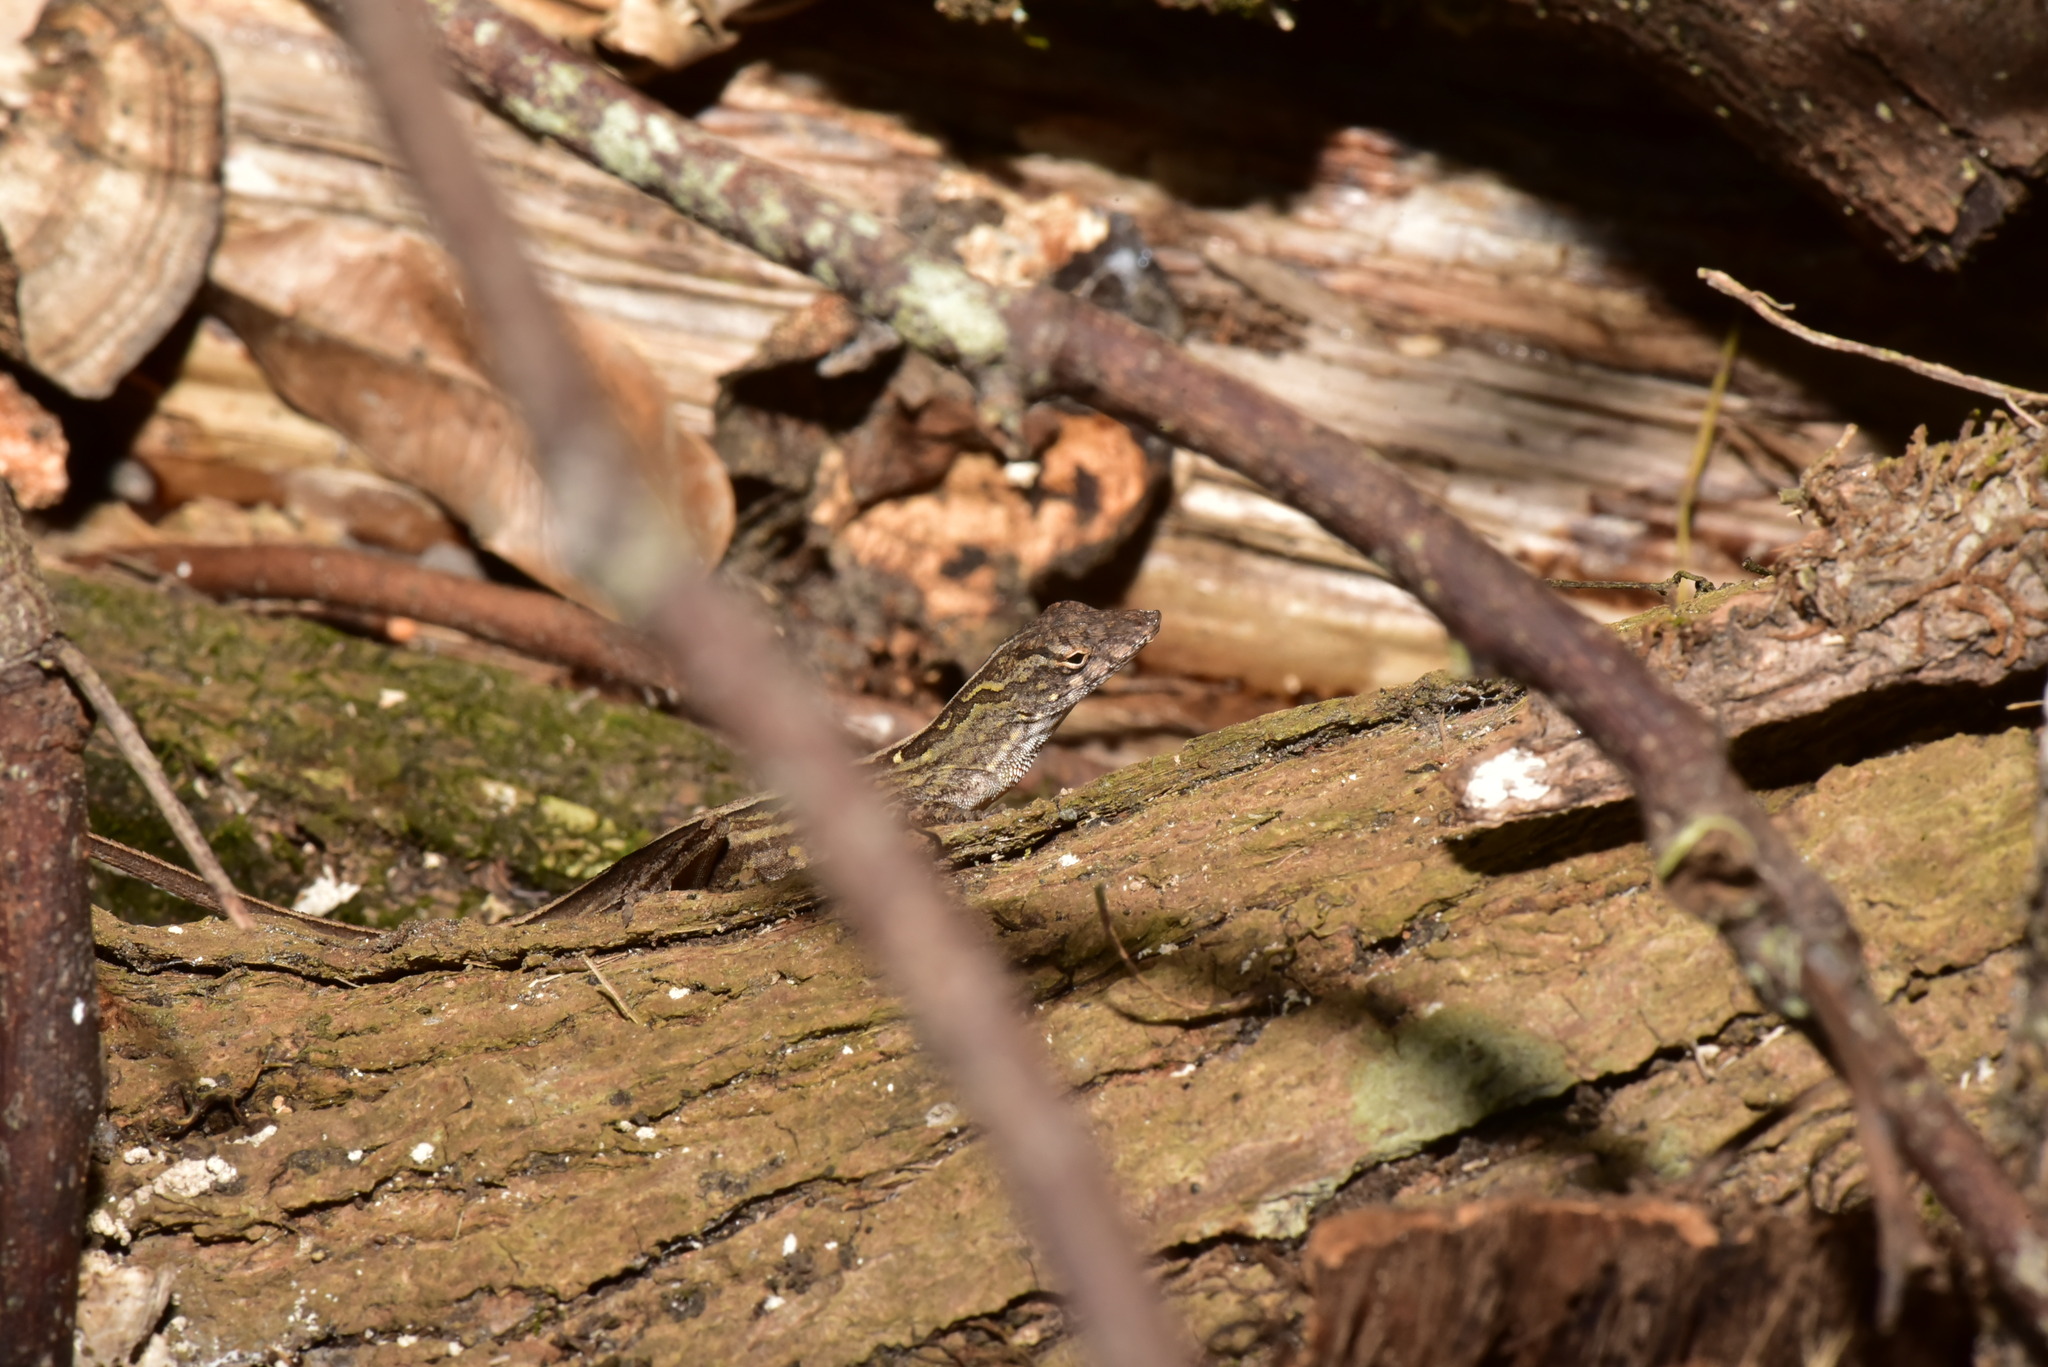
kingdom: Animalia
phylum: Chordata
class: Squamata
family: Dactyloidae
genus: Anolis
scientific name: Anolis sagrei
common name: Brown anole
